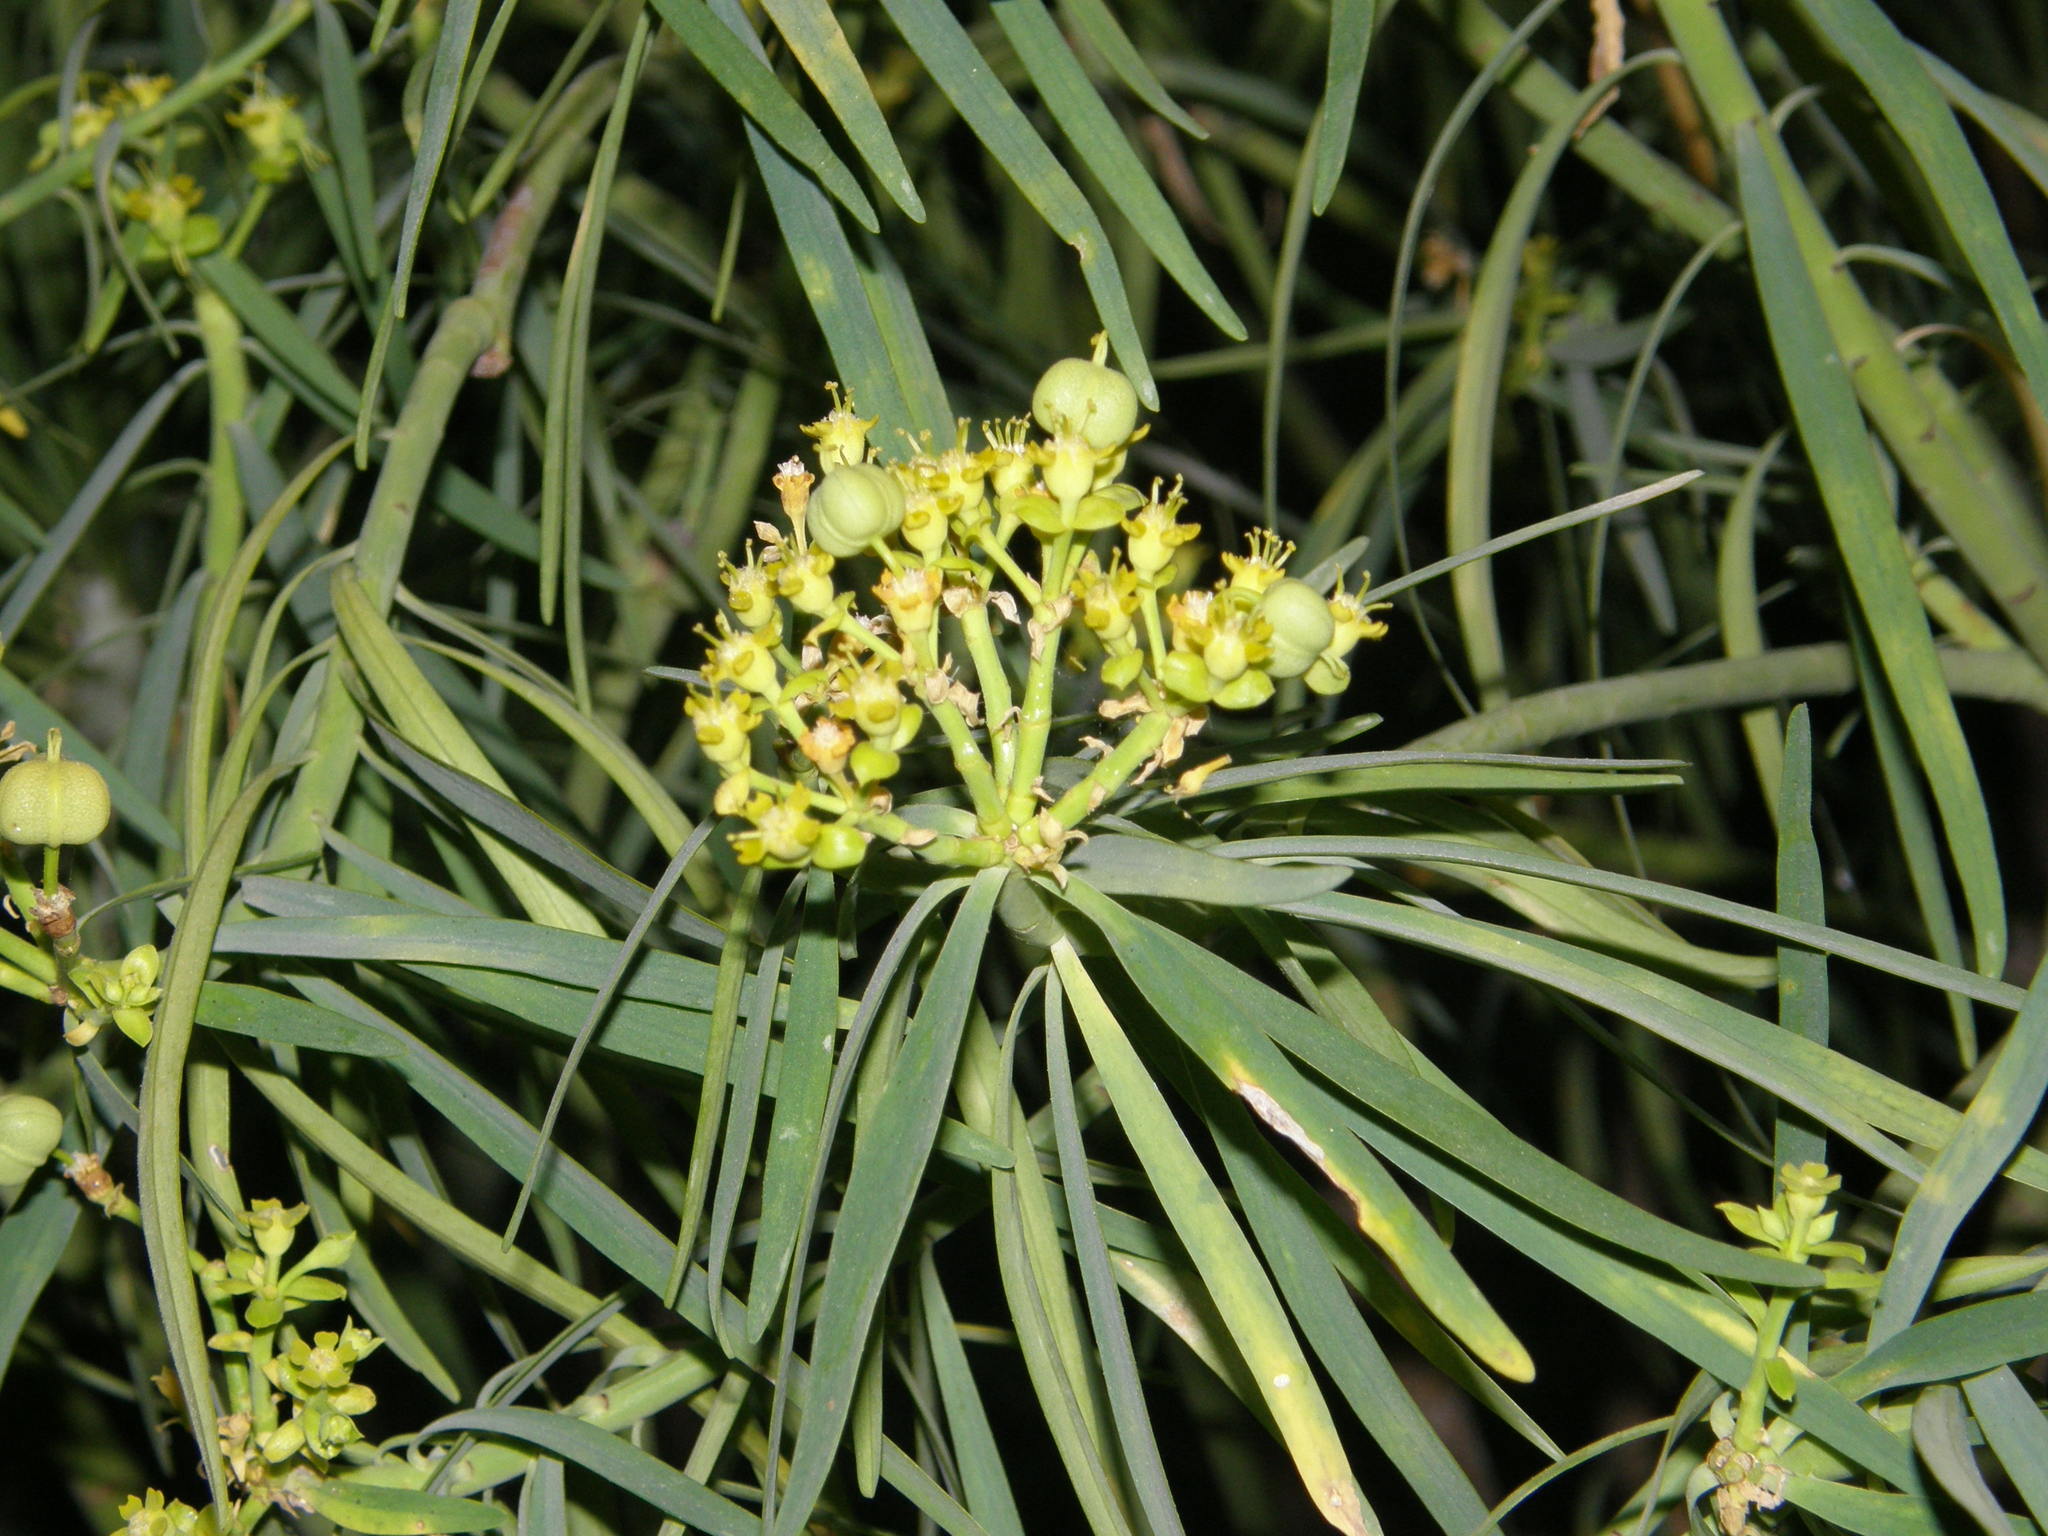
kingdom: Plantae
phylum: Tracheophyta
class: Magnoliopsida
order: Malpighiales
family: Euphorbiaceae
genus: Euphorbia
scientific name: Euphorbia lamarckii
